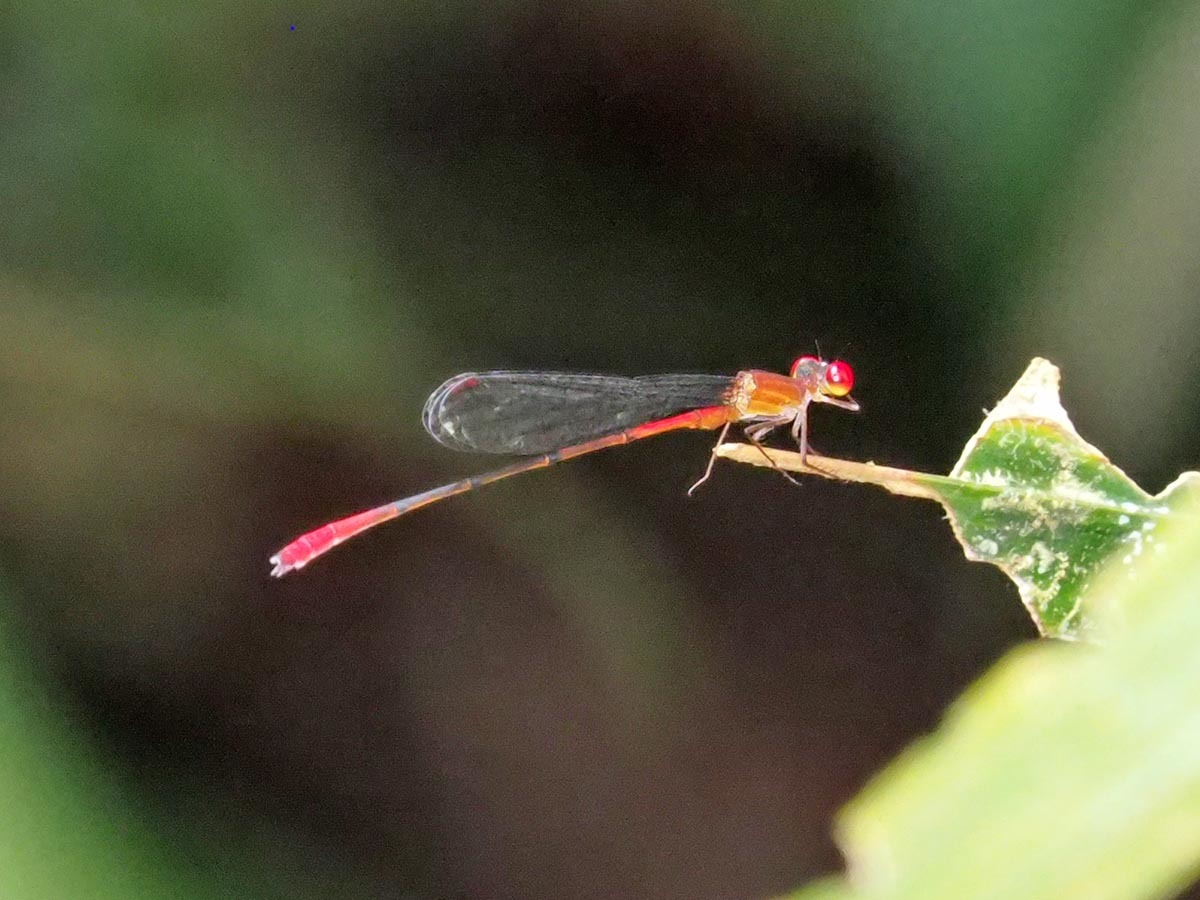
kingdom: Animalia
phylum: Arthropoda
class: Insecta
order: Odonata
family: Coenagrionidae
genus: Telebasis
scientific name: Telebasis rojinegra
